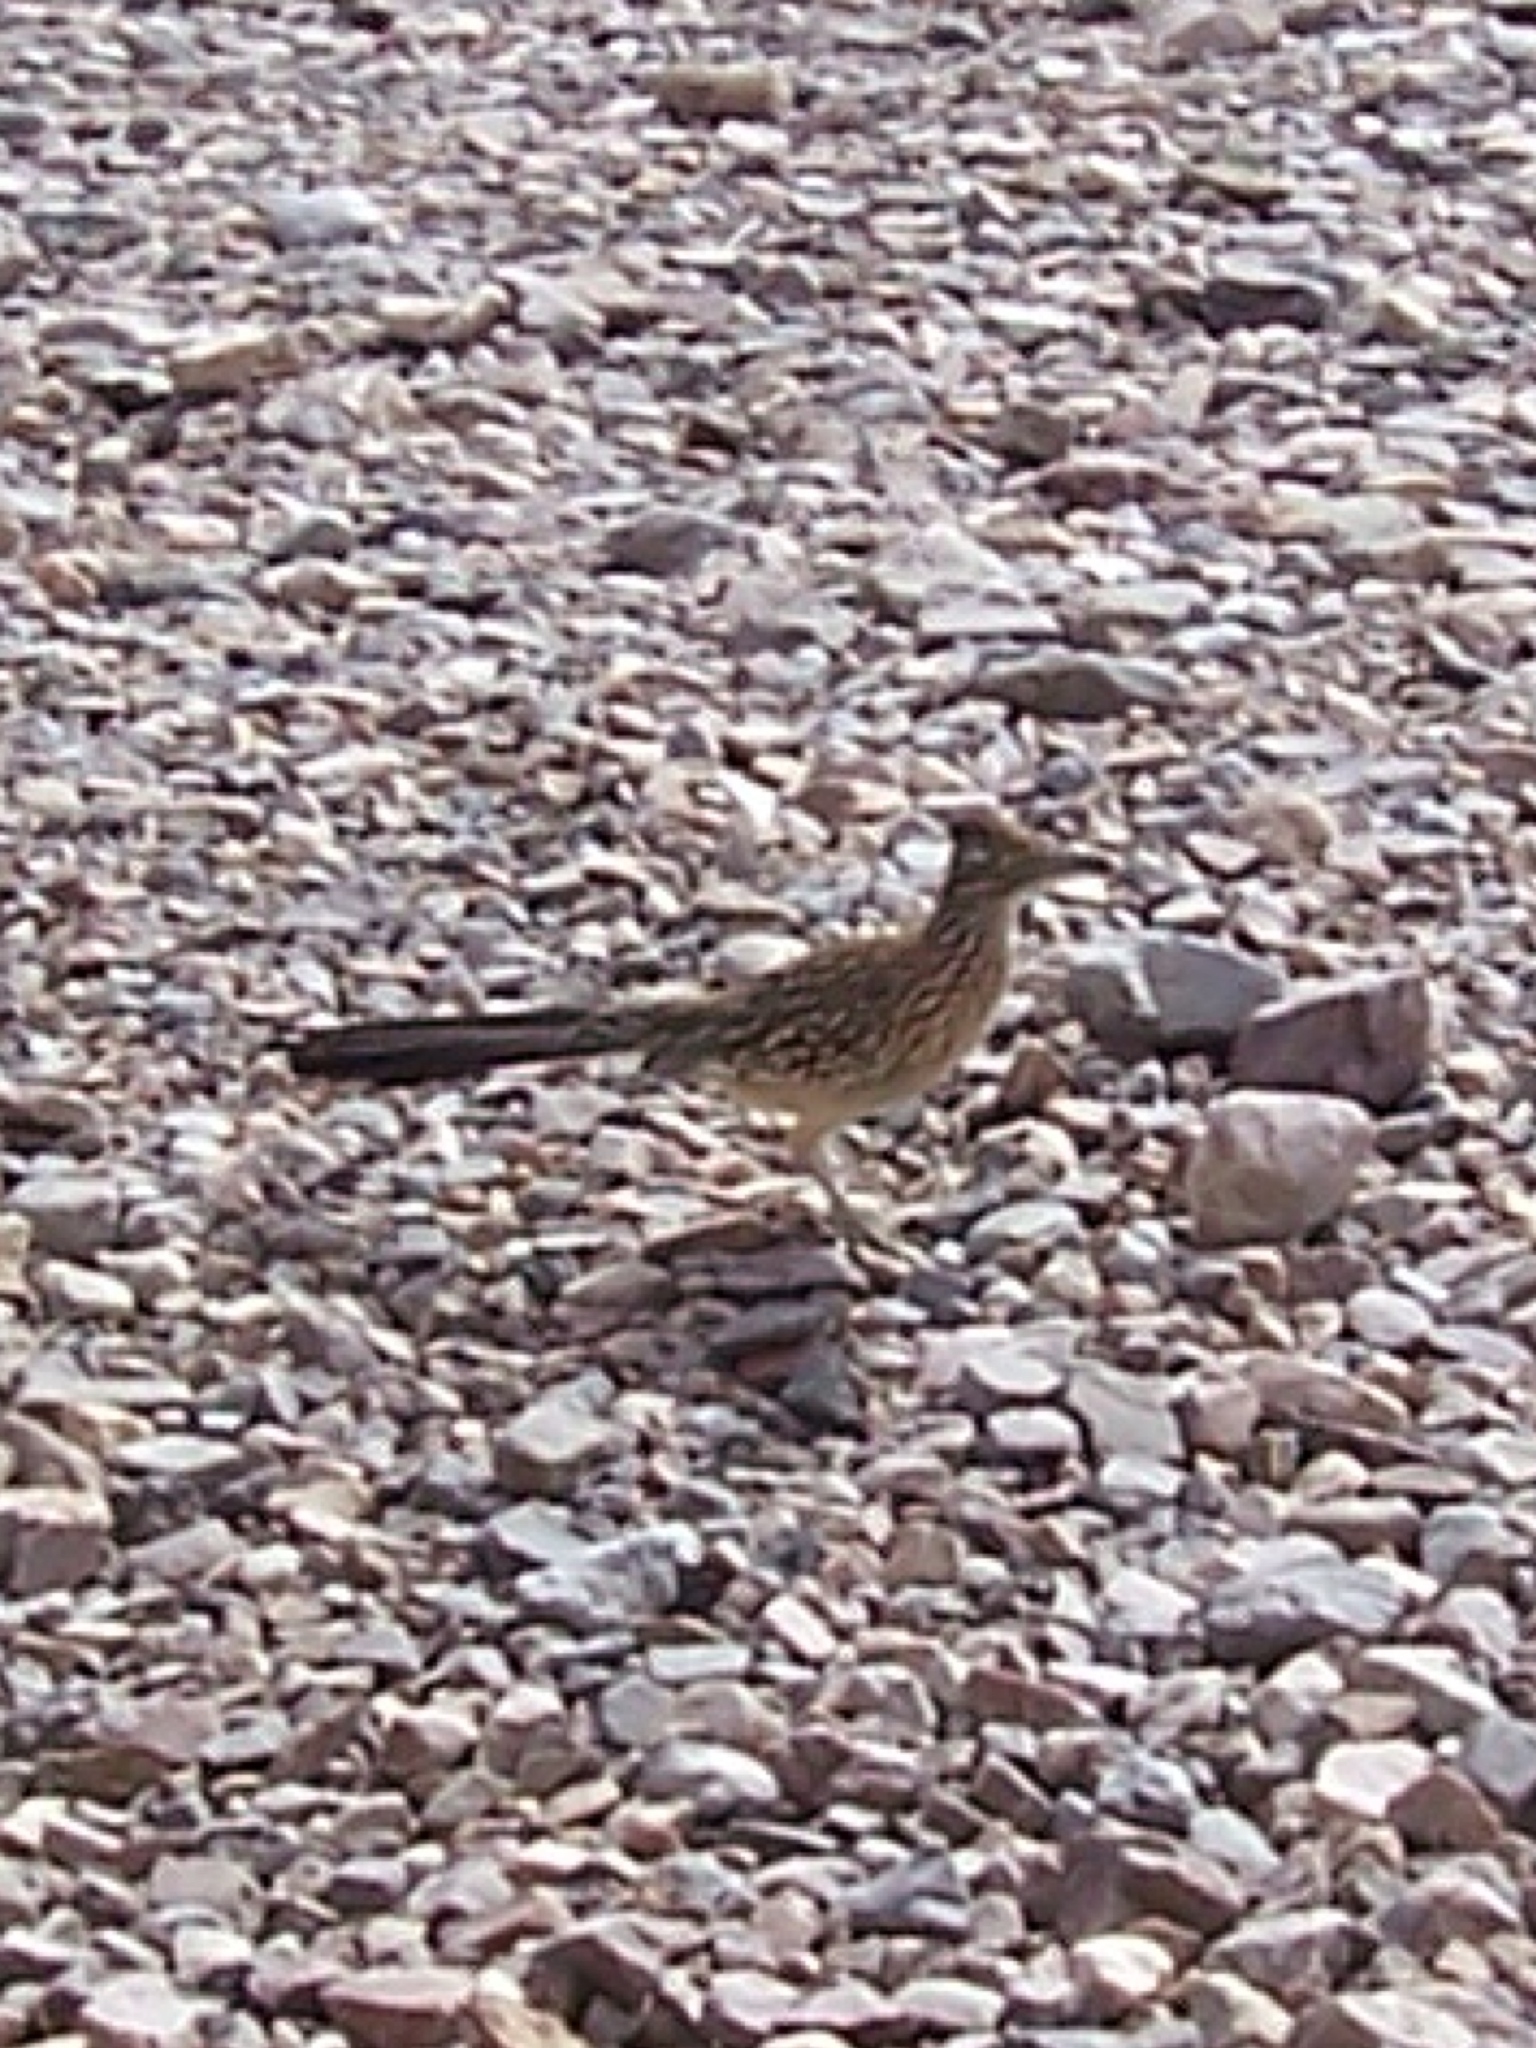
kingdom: Animalia
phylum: Chordata
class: Aves
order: Cuculiformes
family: Cuculidae
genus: Geococcyx
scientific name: Geococcyx californianus
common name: Greater roadrunner
